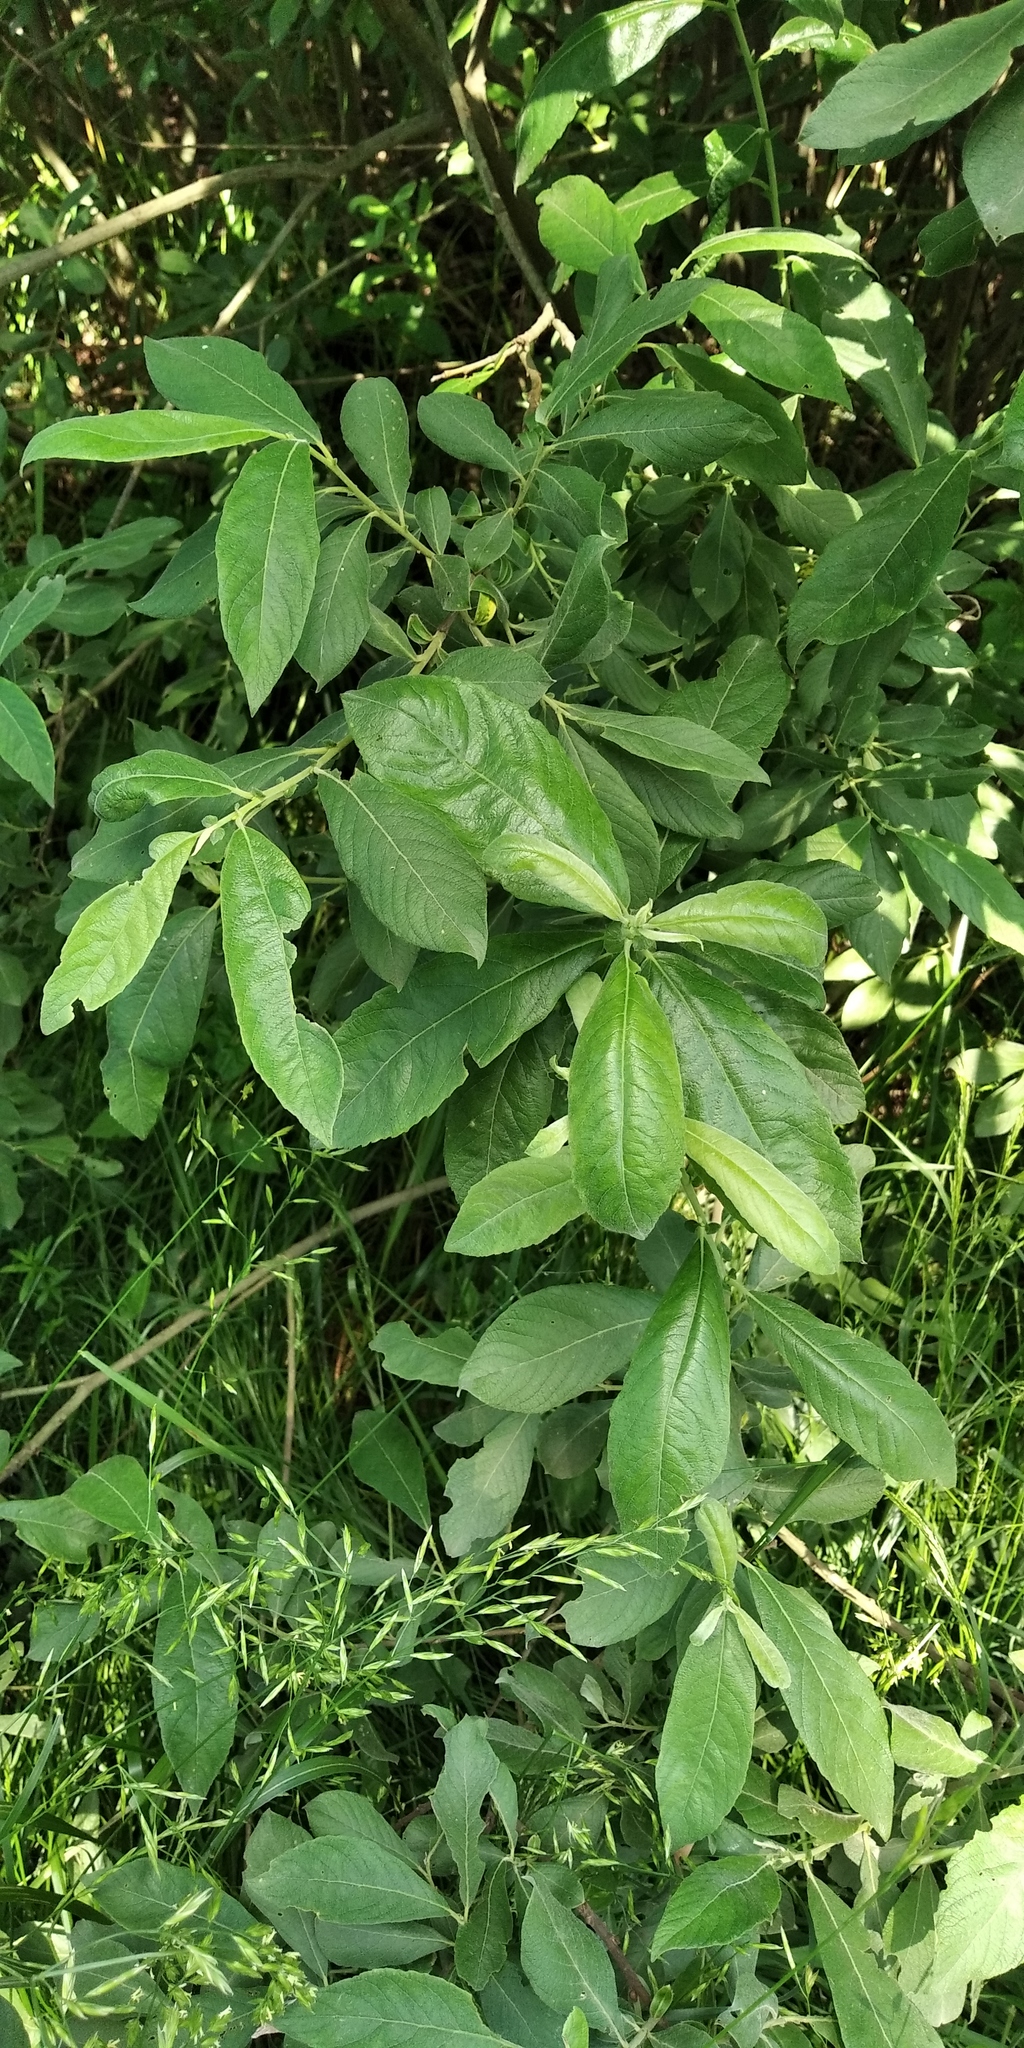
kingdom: Plantae
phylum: Tracheophyta
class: Magnoliopsida
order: Malpighiales
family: Salicaceae
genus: Salix
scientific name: Salix cinerea
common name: Common sallow
